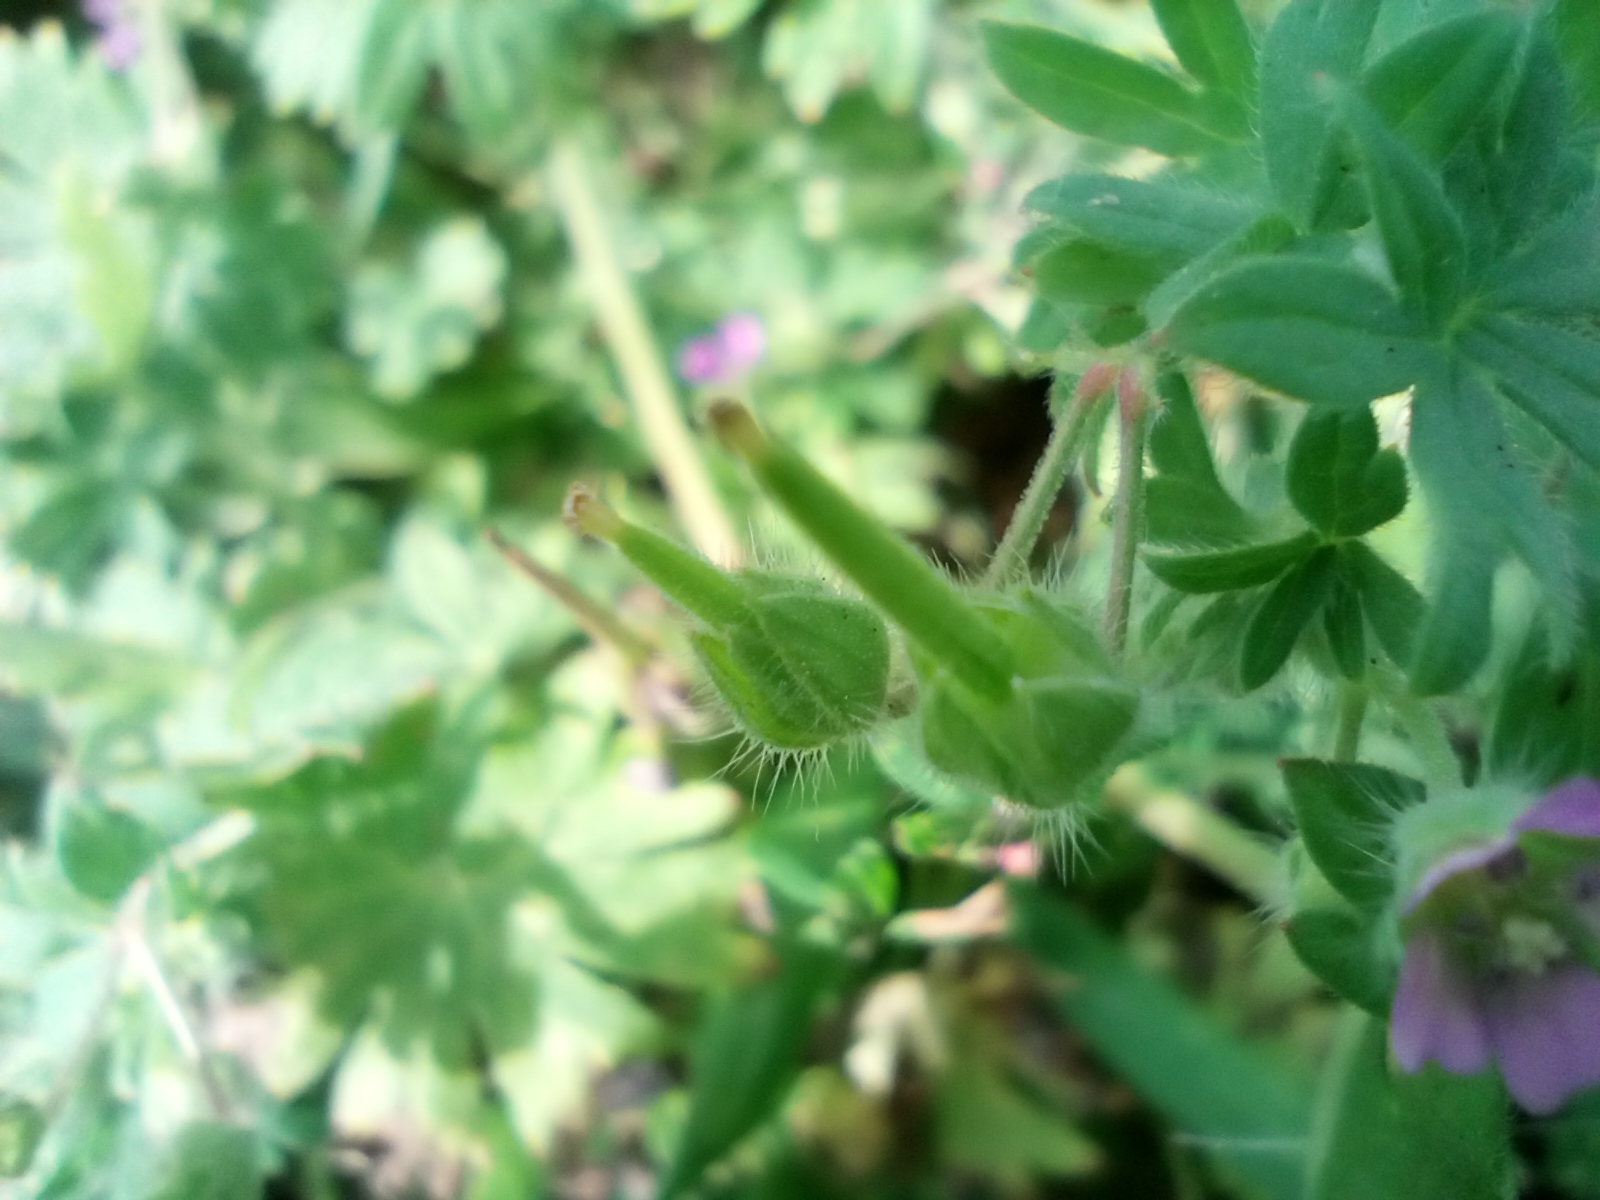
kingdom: Plantae
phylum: Tracheophyta
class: Magnoliopsida
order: Geraniales
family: Geraniaceae
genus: Geranium
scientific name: Geranium pusillum
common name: Small geranium
